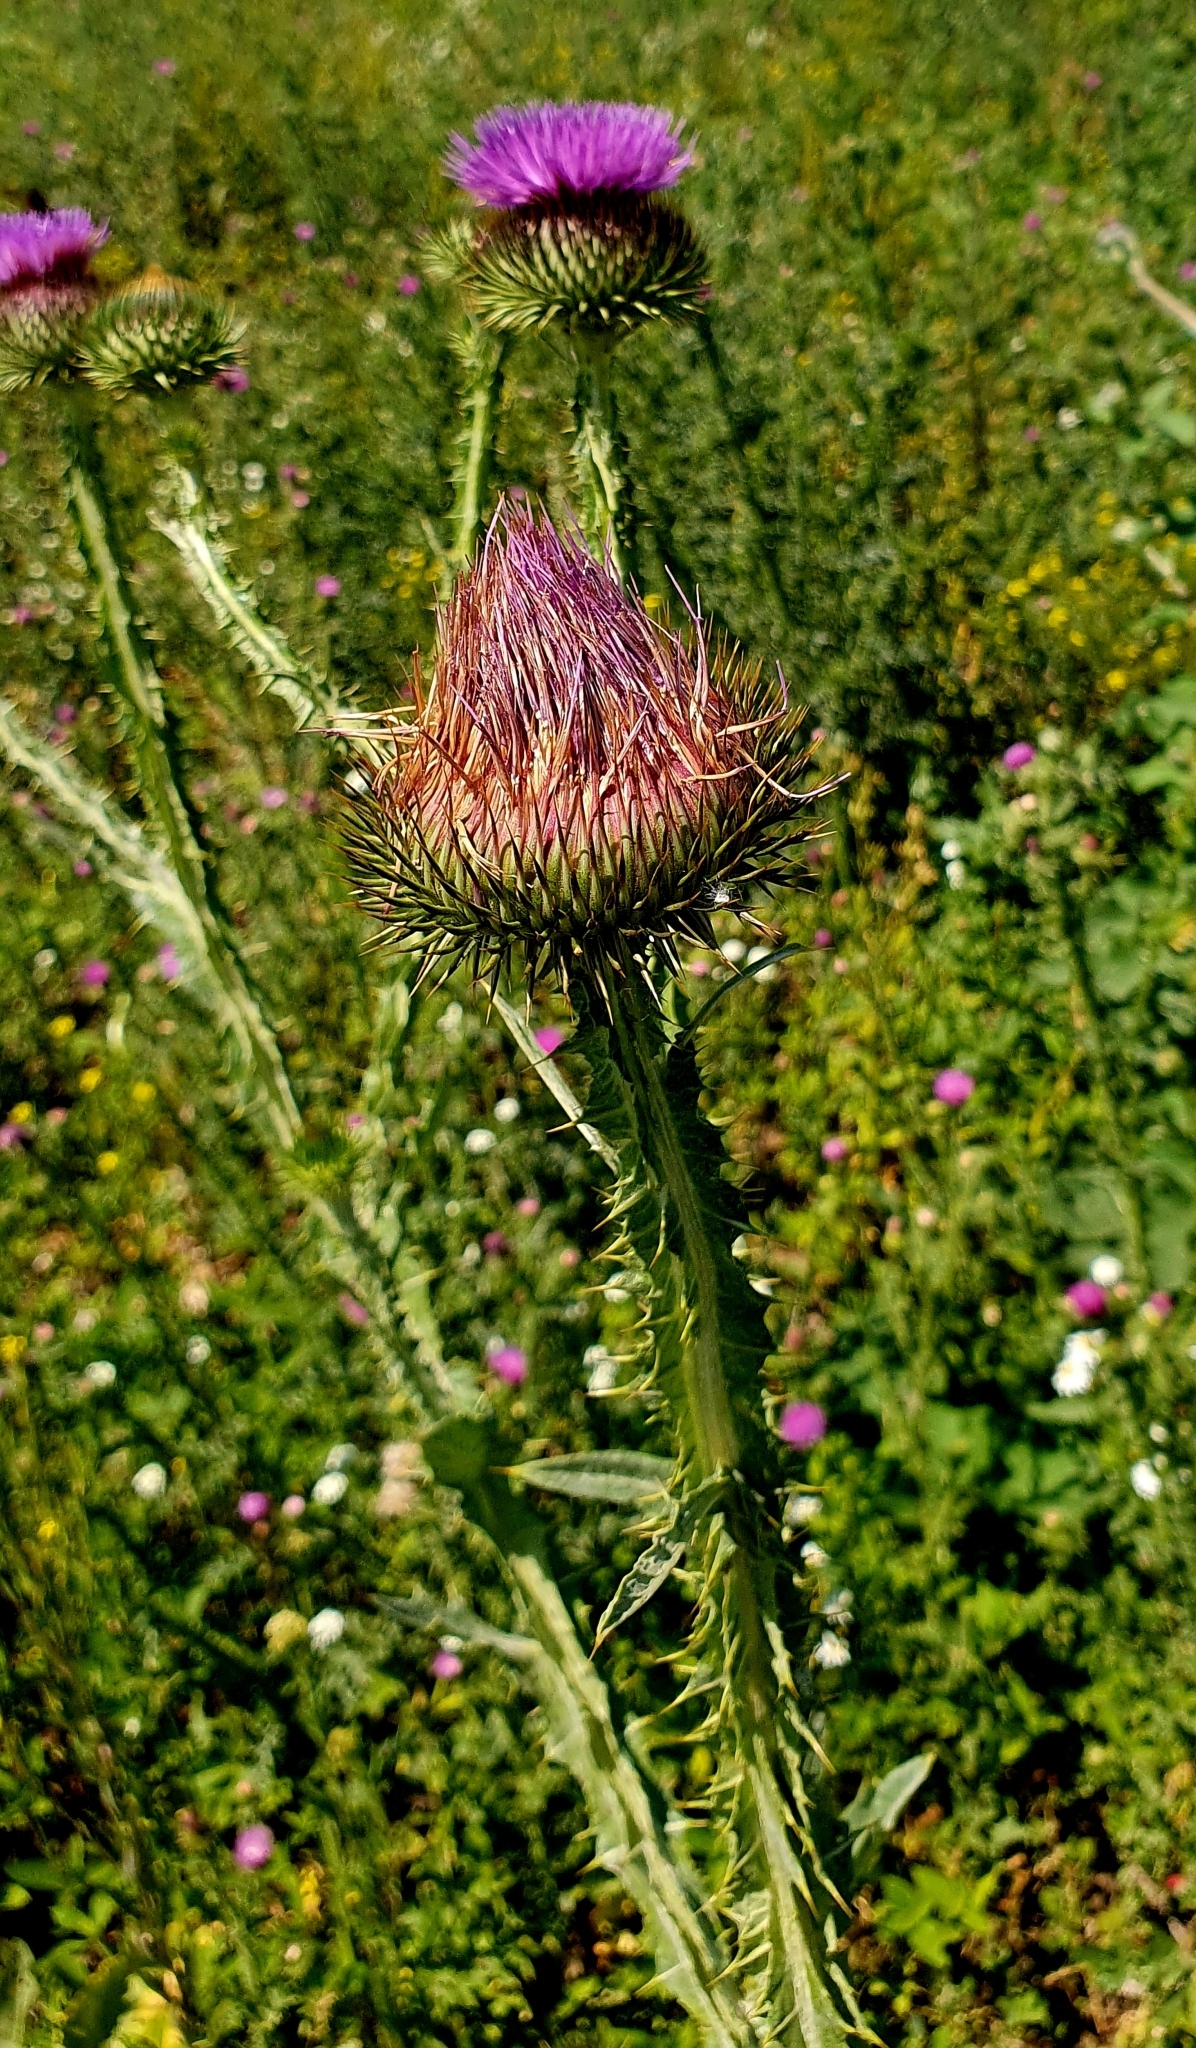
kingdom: Plantae
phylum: Tracheophyta
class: Magnoliopsida
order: Asterales
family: Asteraceae
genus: Onopordum
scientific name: Onopordum acanthium
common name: Scotch thistle
